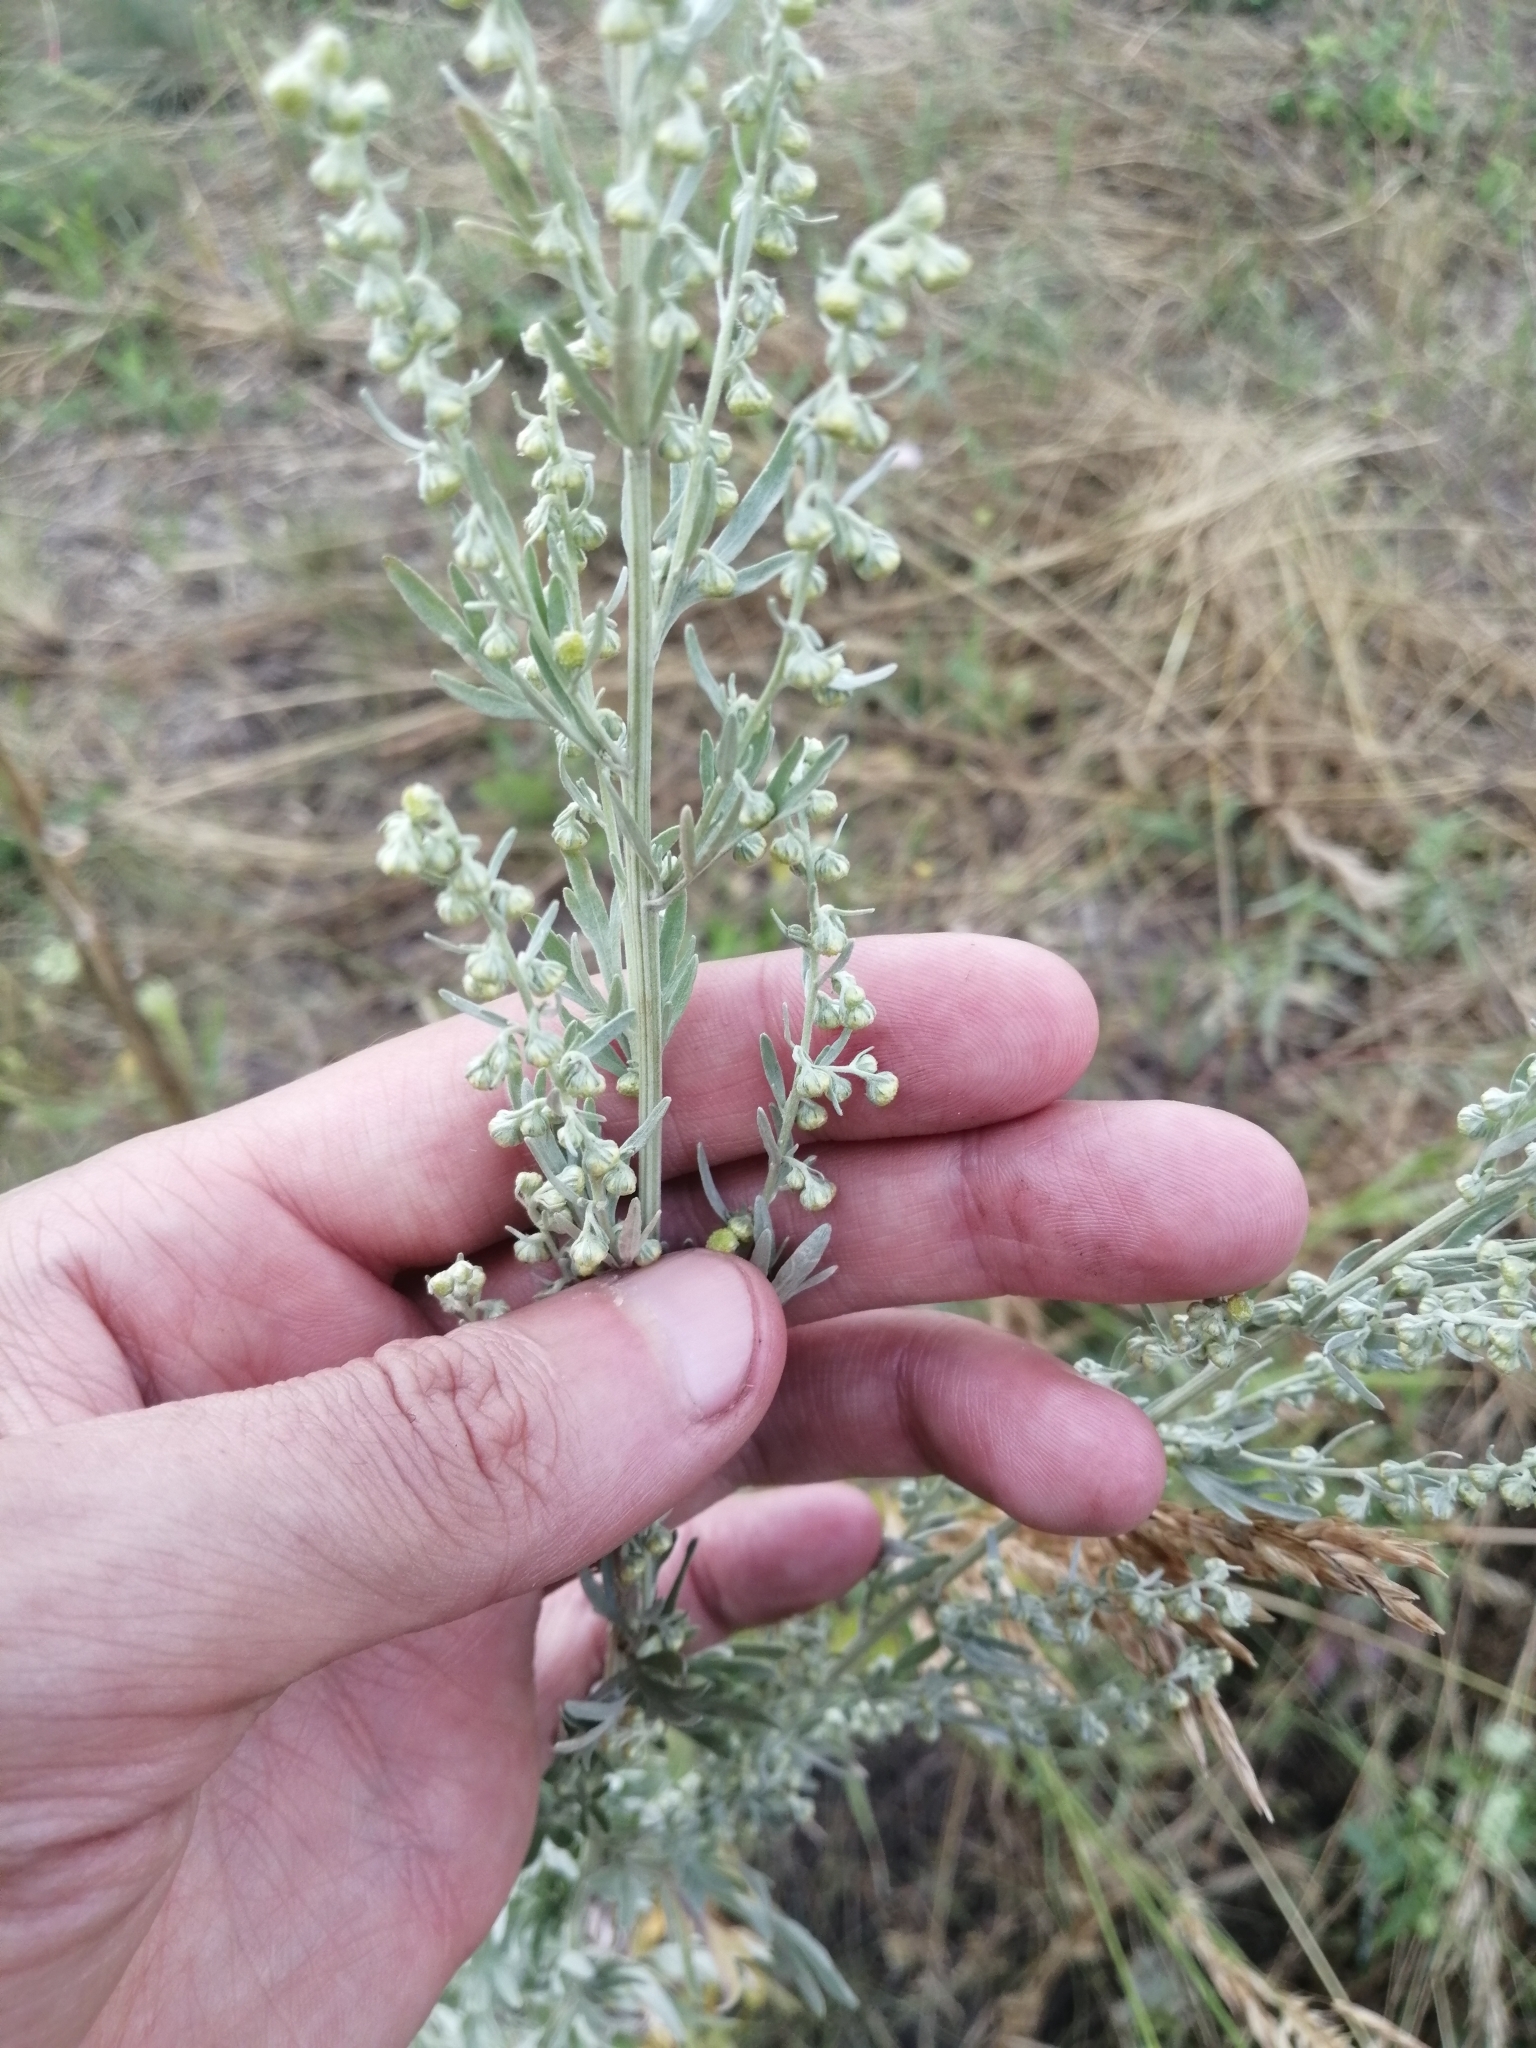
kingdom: Plantae
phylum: Tracheophyta
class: Magnoliopsida
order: Asterales
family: Asteraceae
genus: Artemisia
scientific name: Artemisia absinthium
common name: Wormwood
